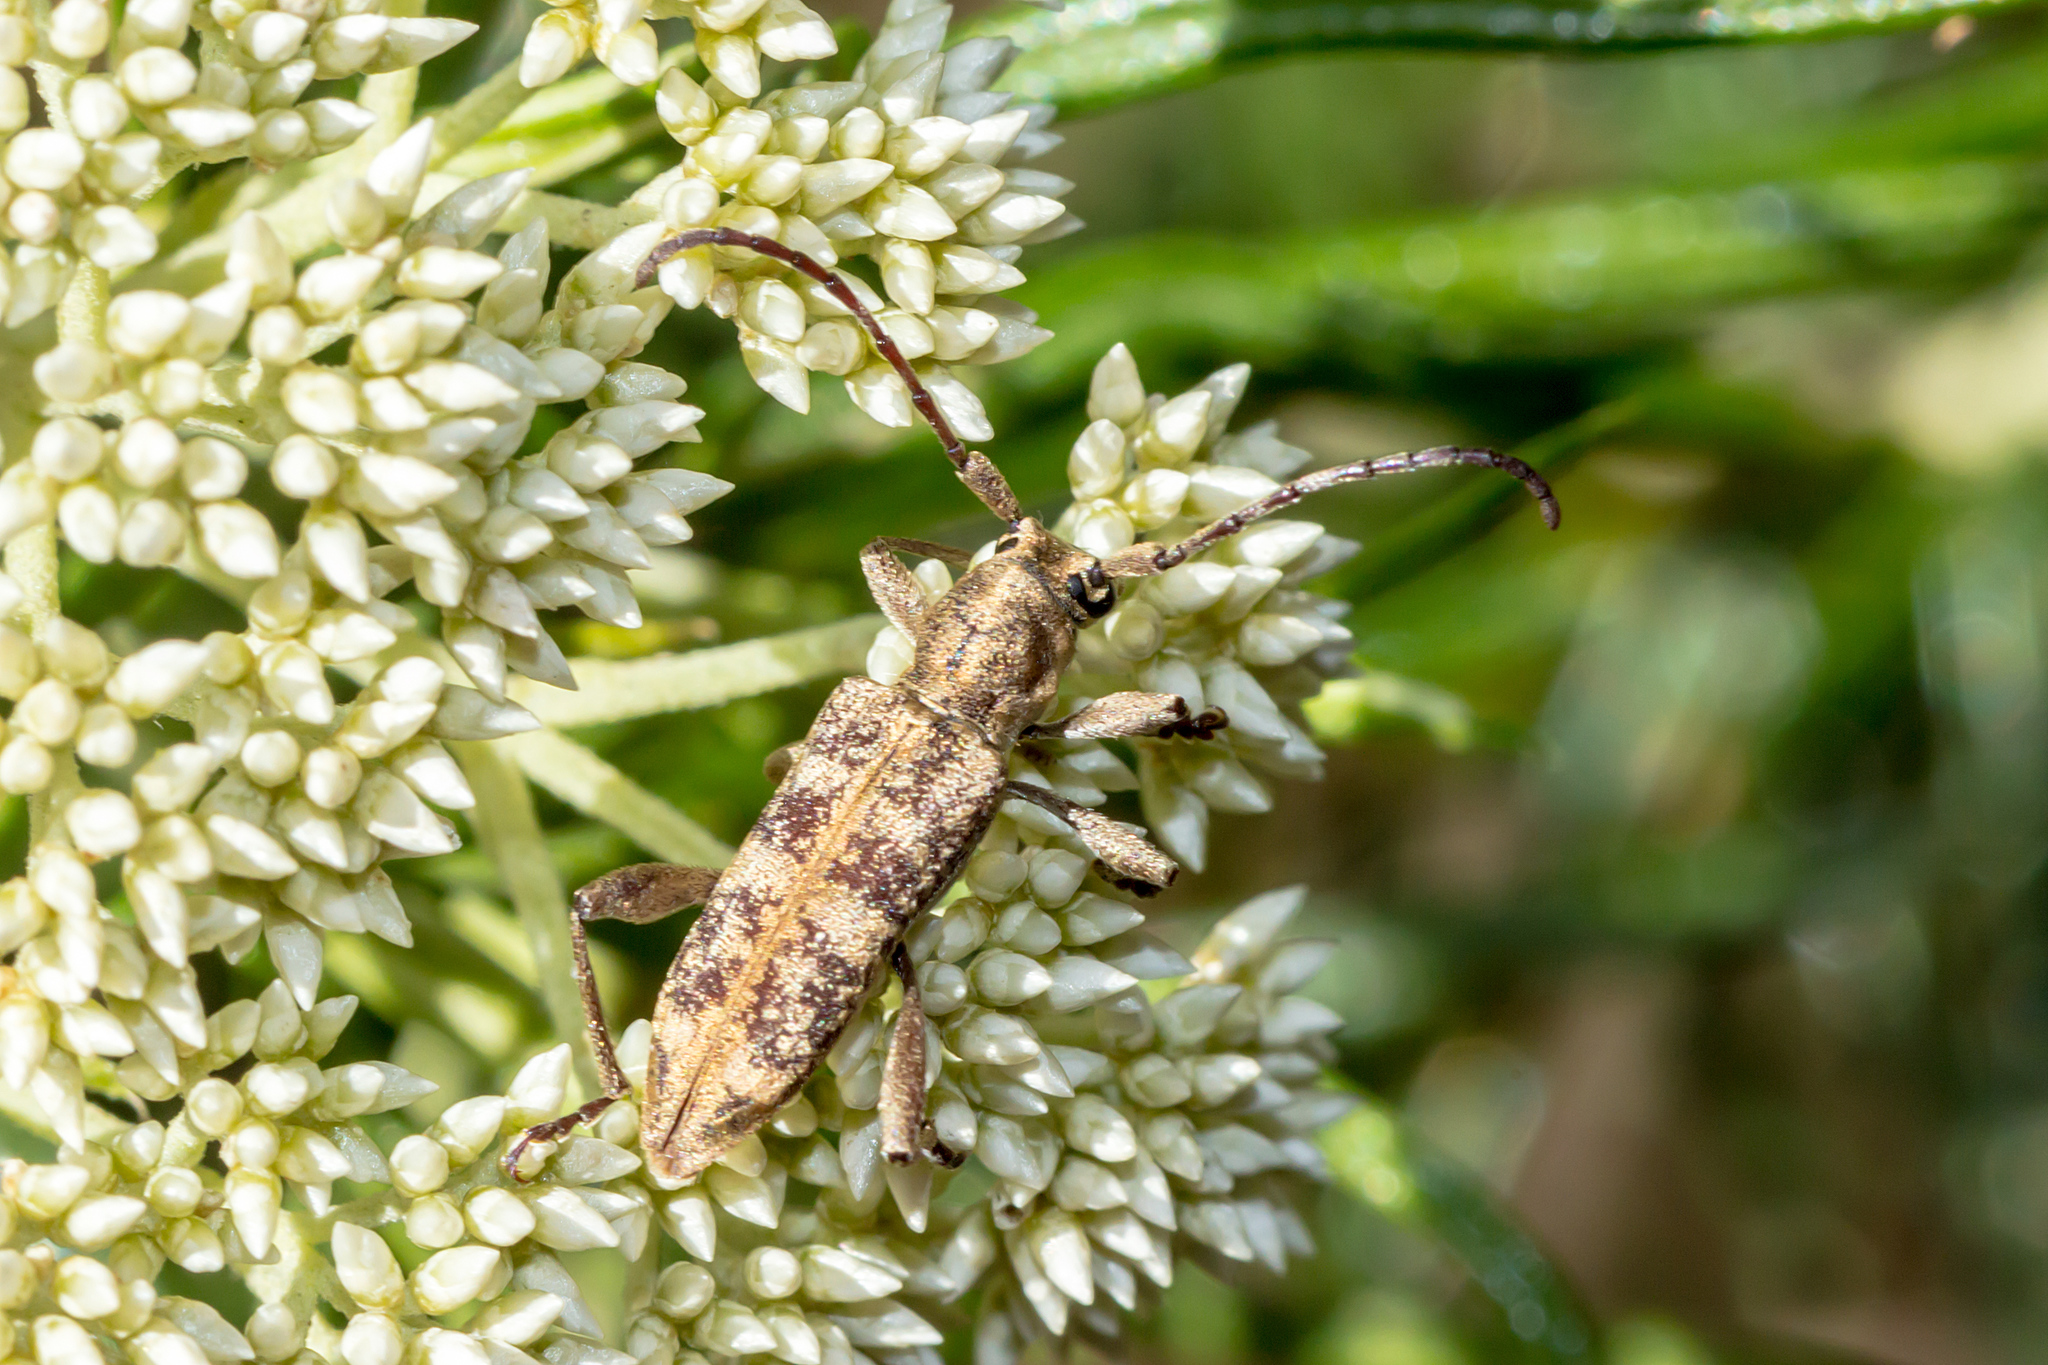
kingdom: Animalia
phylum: Arthropoda
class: Insecta
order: Coleoptera
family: Cerambycidae
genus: Pempsamacra
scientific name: Pempsamacra dispersa
